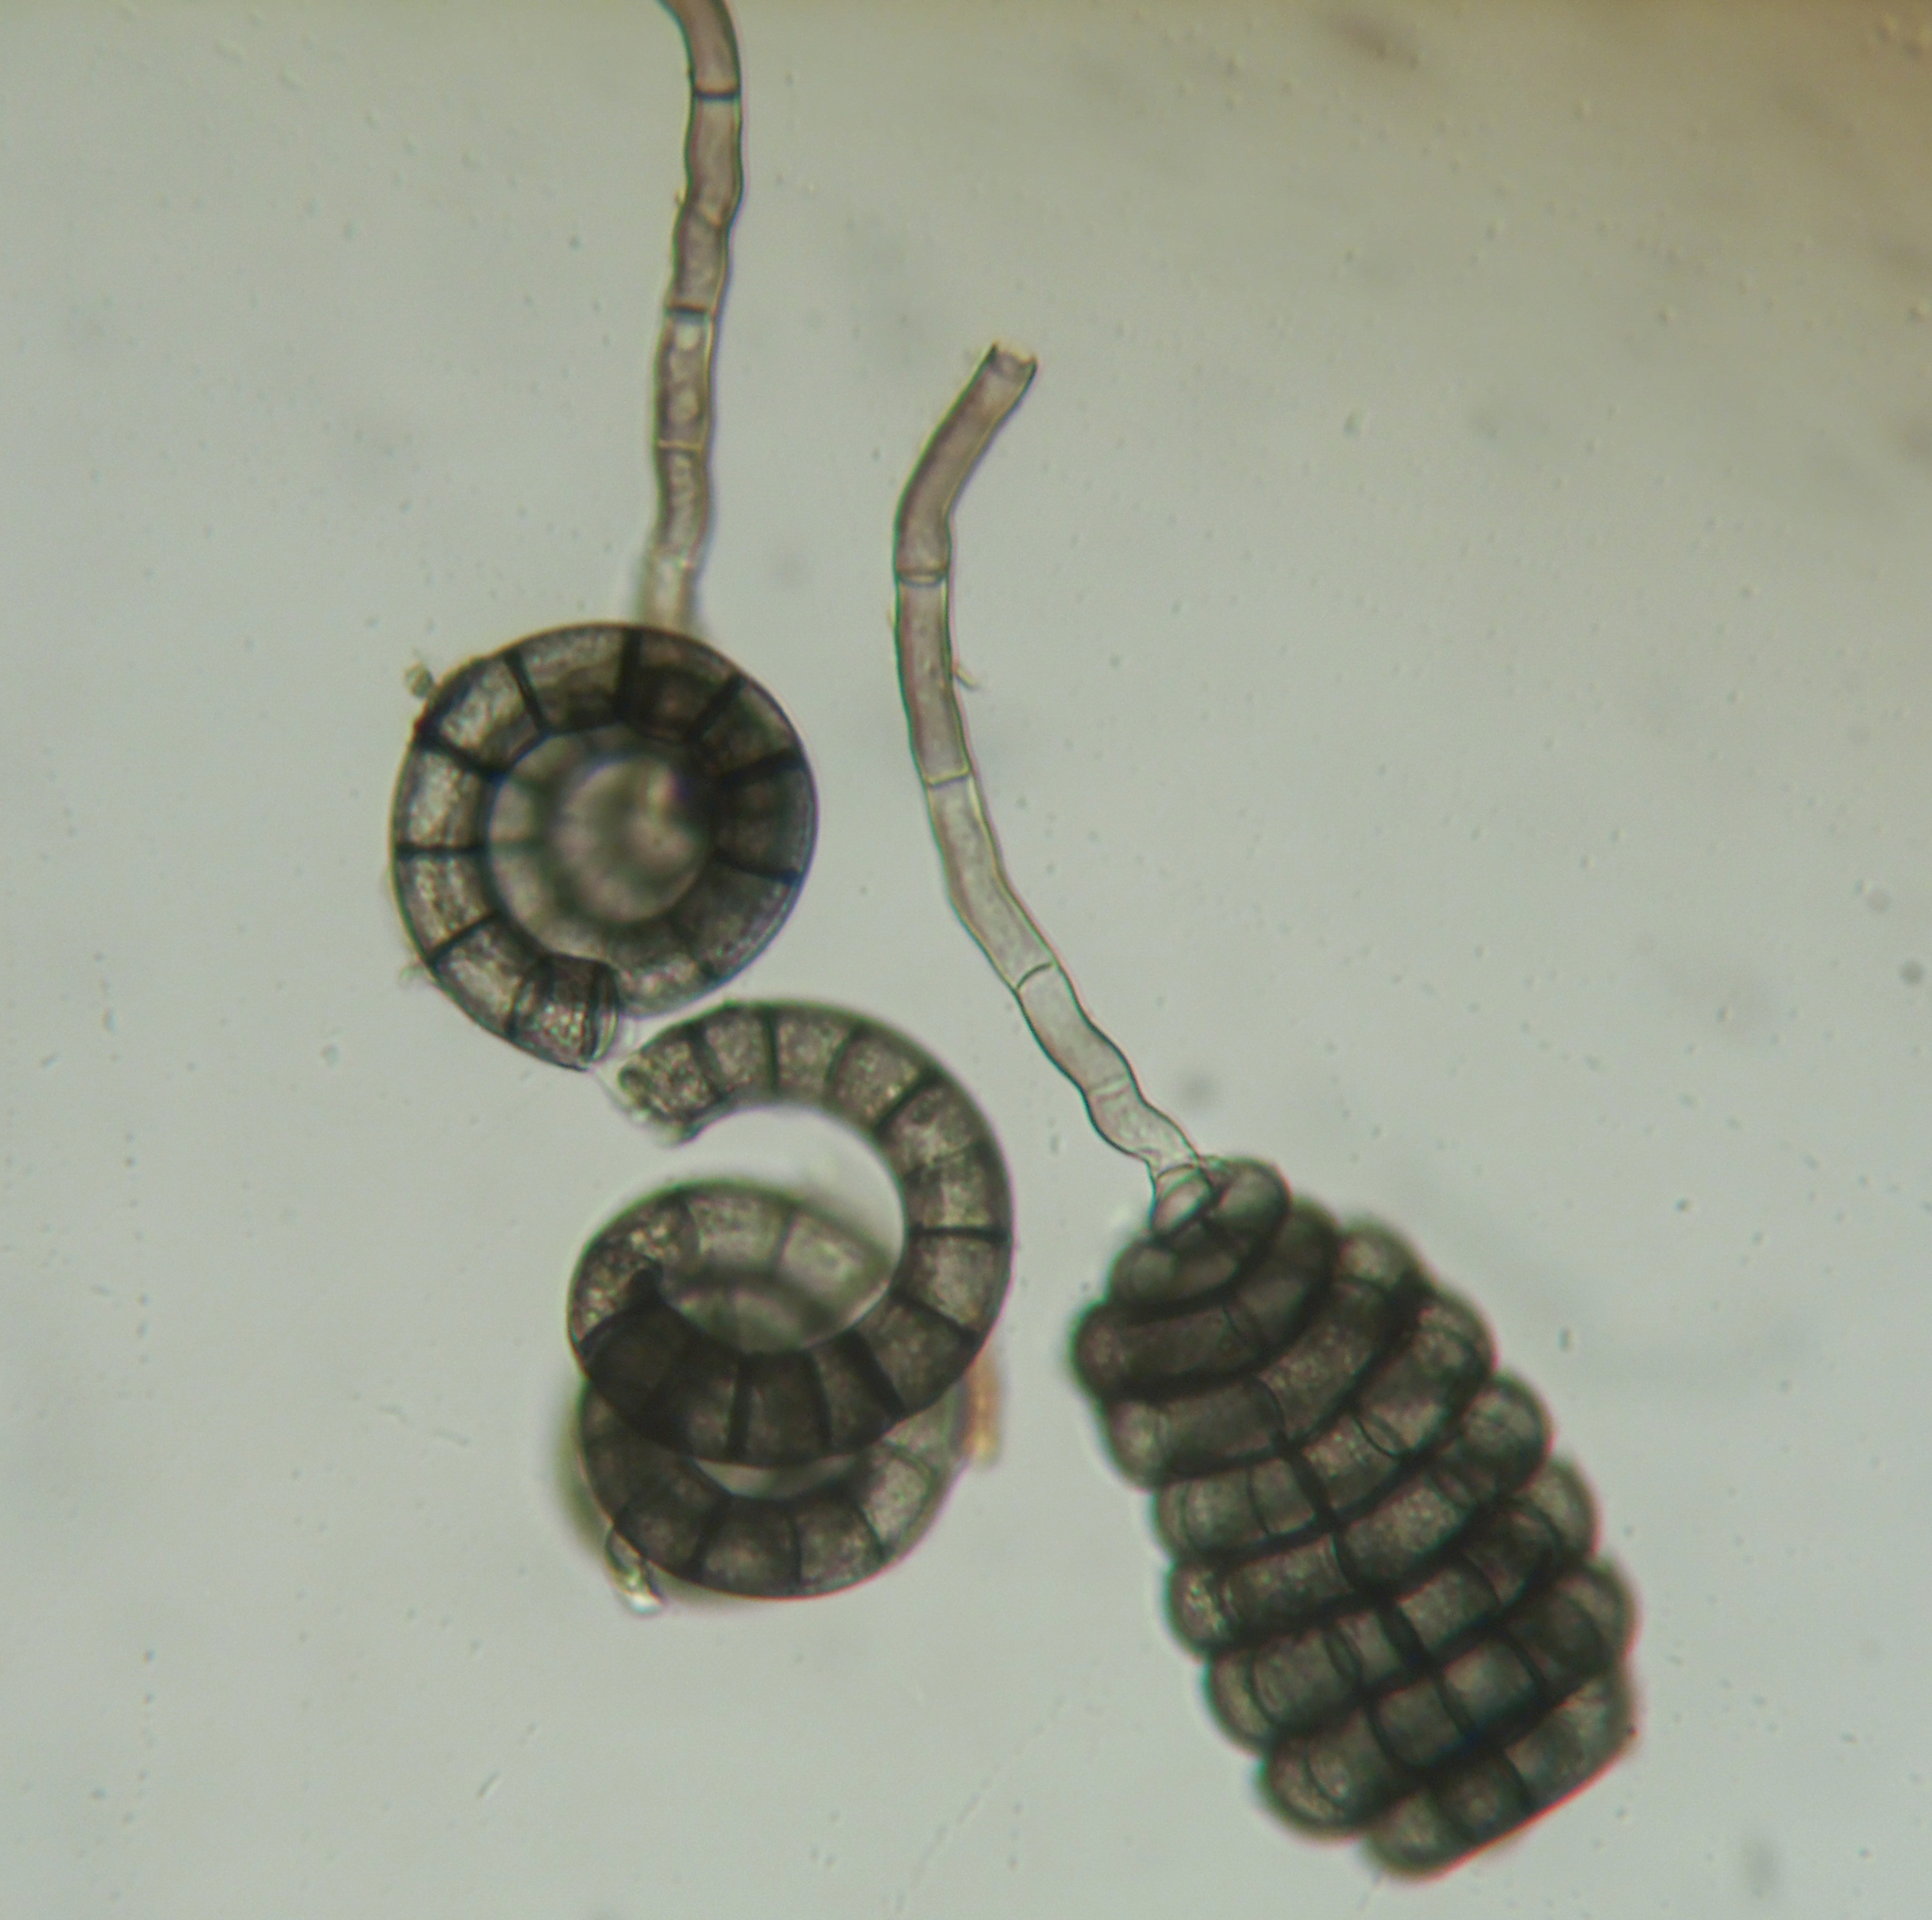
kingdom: Fungi
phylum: Ascomycota
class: Dothideomycetes
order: Pleosporales
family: Pleomonodictydaceae
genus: Pleohelicoon
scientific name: Pleohelicoon richonis
